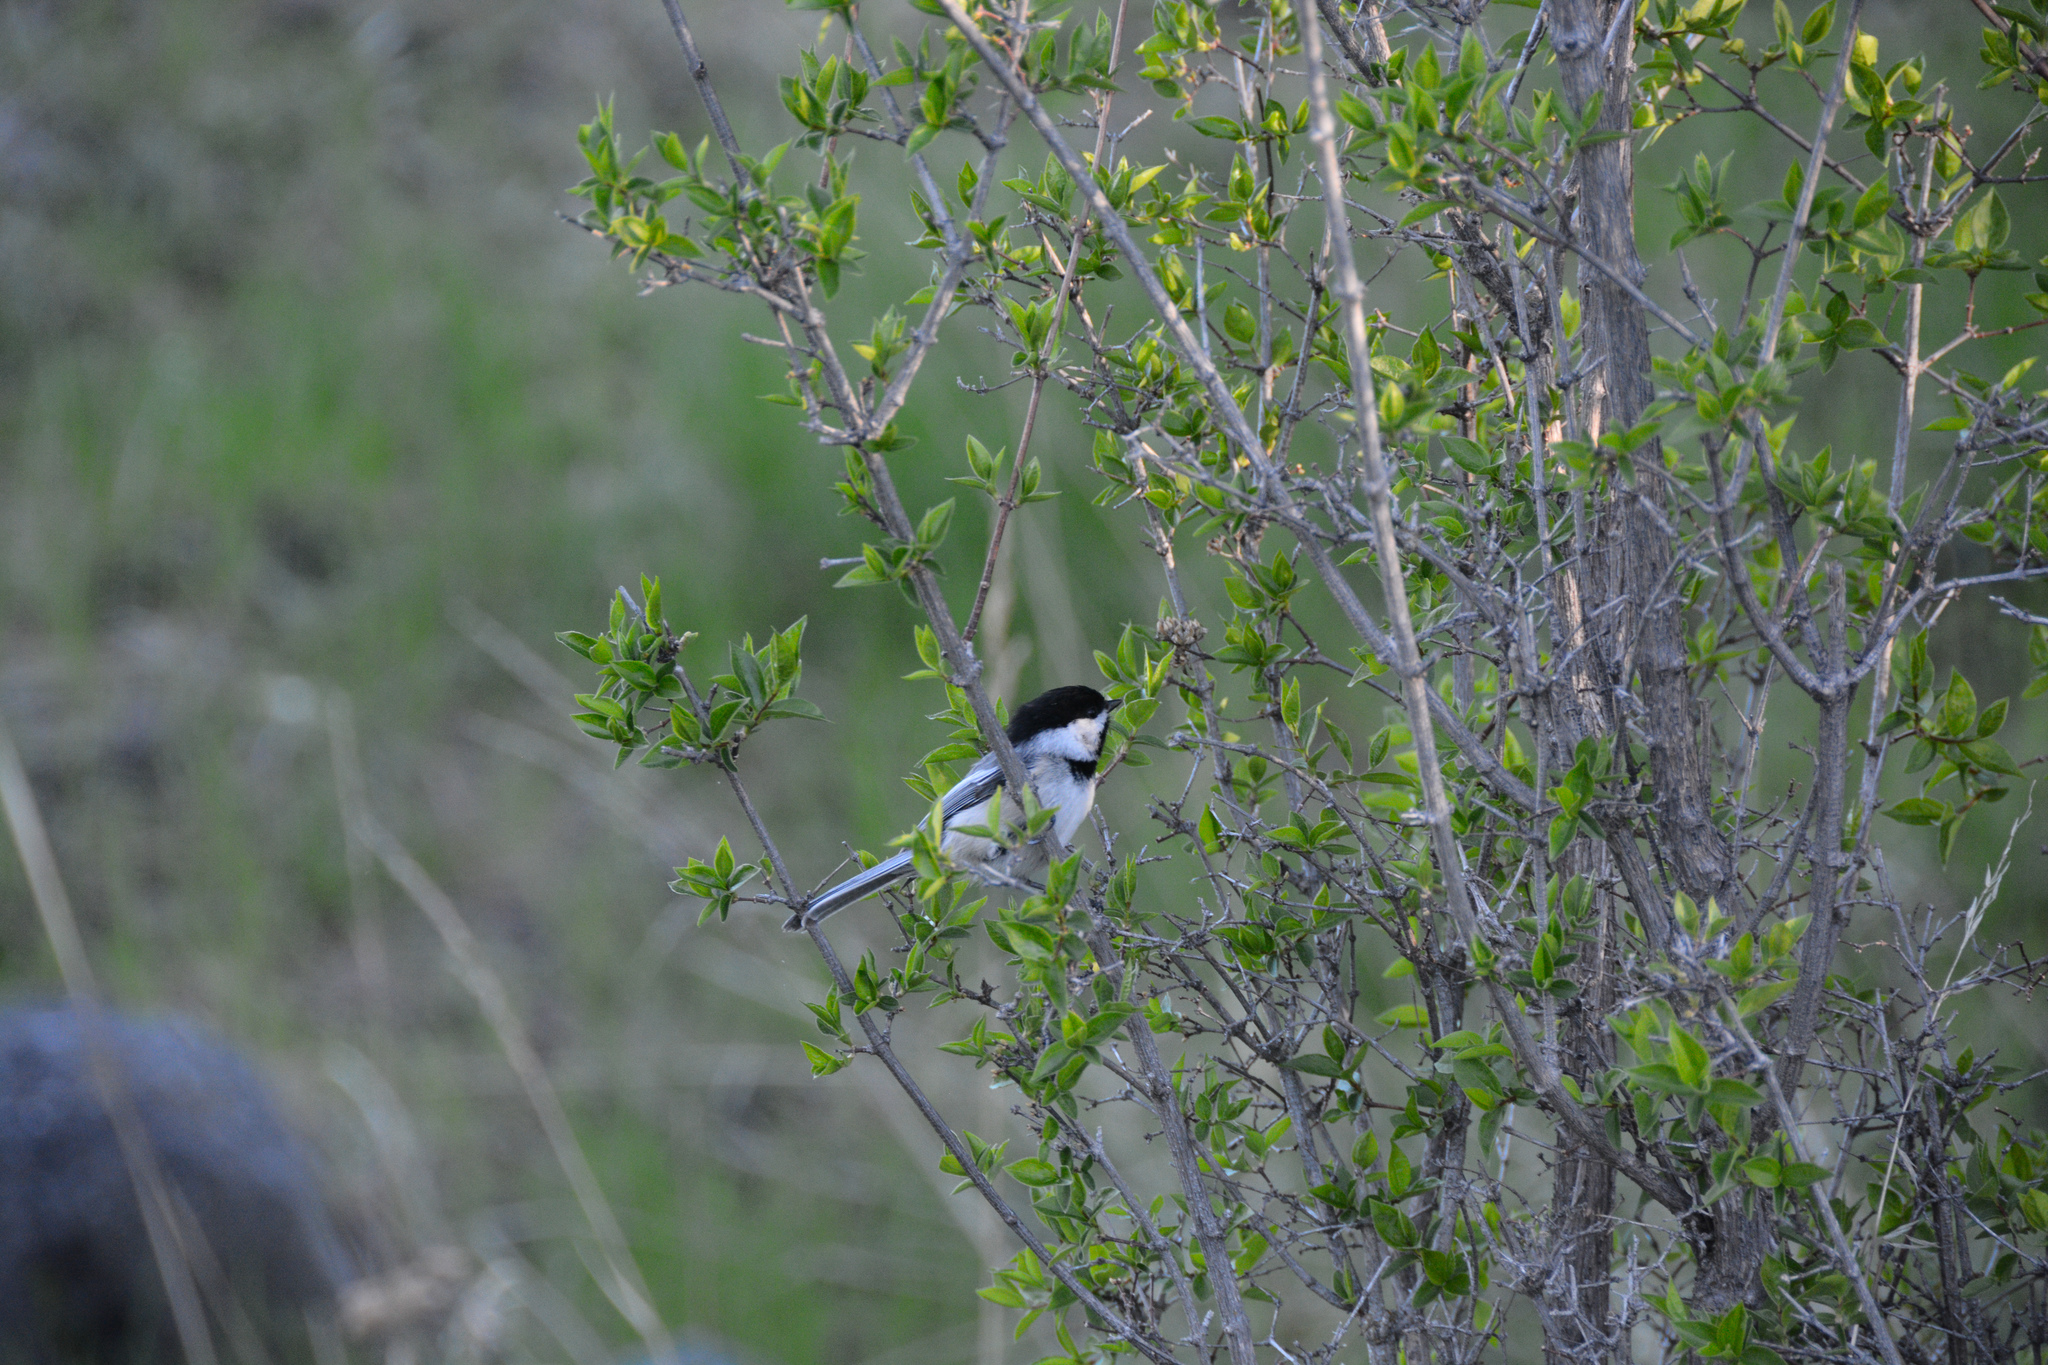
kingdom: Animalia
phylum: Chordata
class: Aves
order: Passeriformes
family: Paridae
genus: Poecile
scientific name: Poecile atricapillus
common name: Black-capped chickadee
